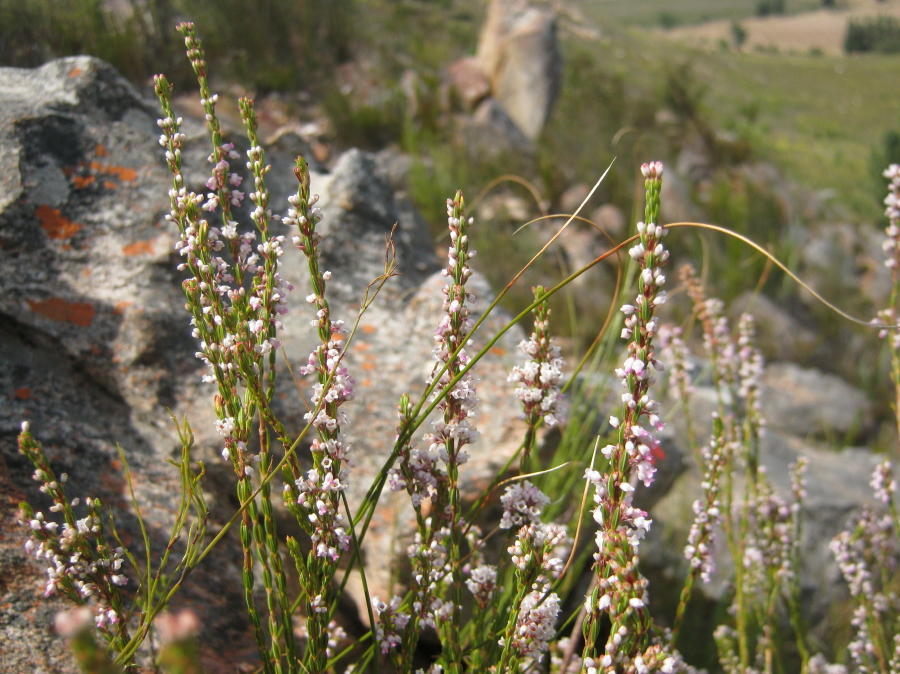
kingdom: Plantae
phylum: Tracheophyta
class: Magnoliopsida
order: Ericales
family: Ericaceae
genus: Erica
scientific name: Erica articularis
